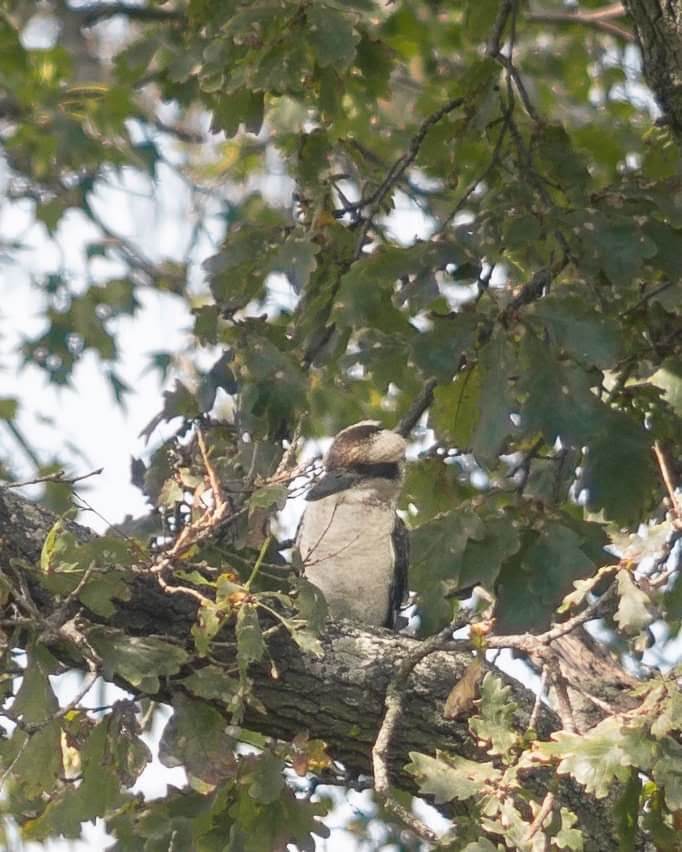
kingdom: Animalia
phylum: Chordata
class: Aves
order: Coraciiformes
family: Alcedinidae
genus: Dacelo
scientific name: Dacelo novaeguineae
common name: Laughing kookaburra
